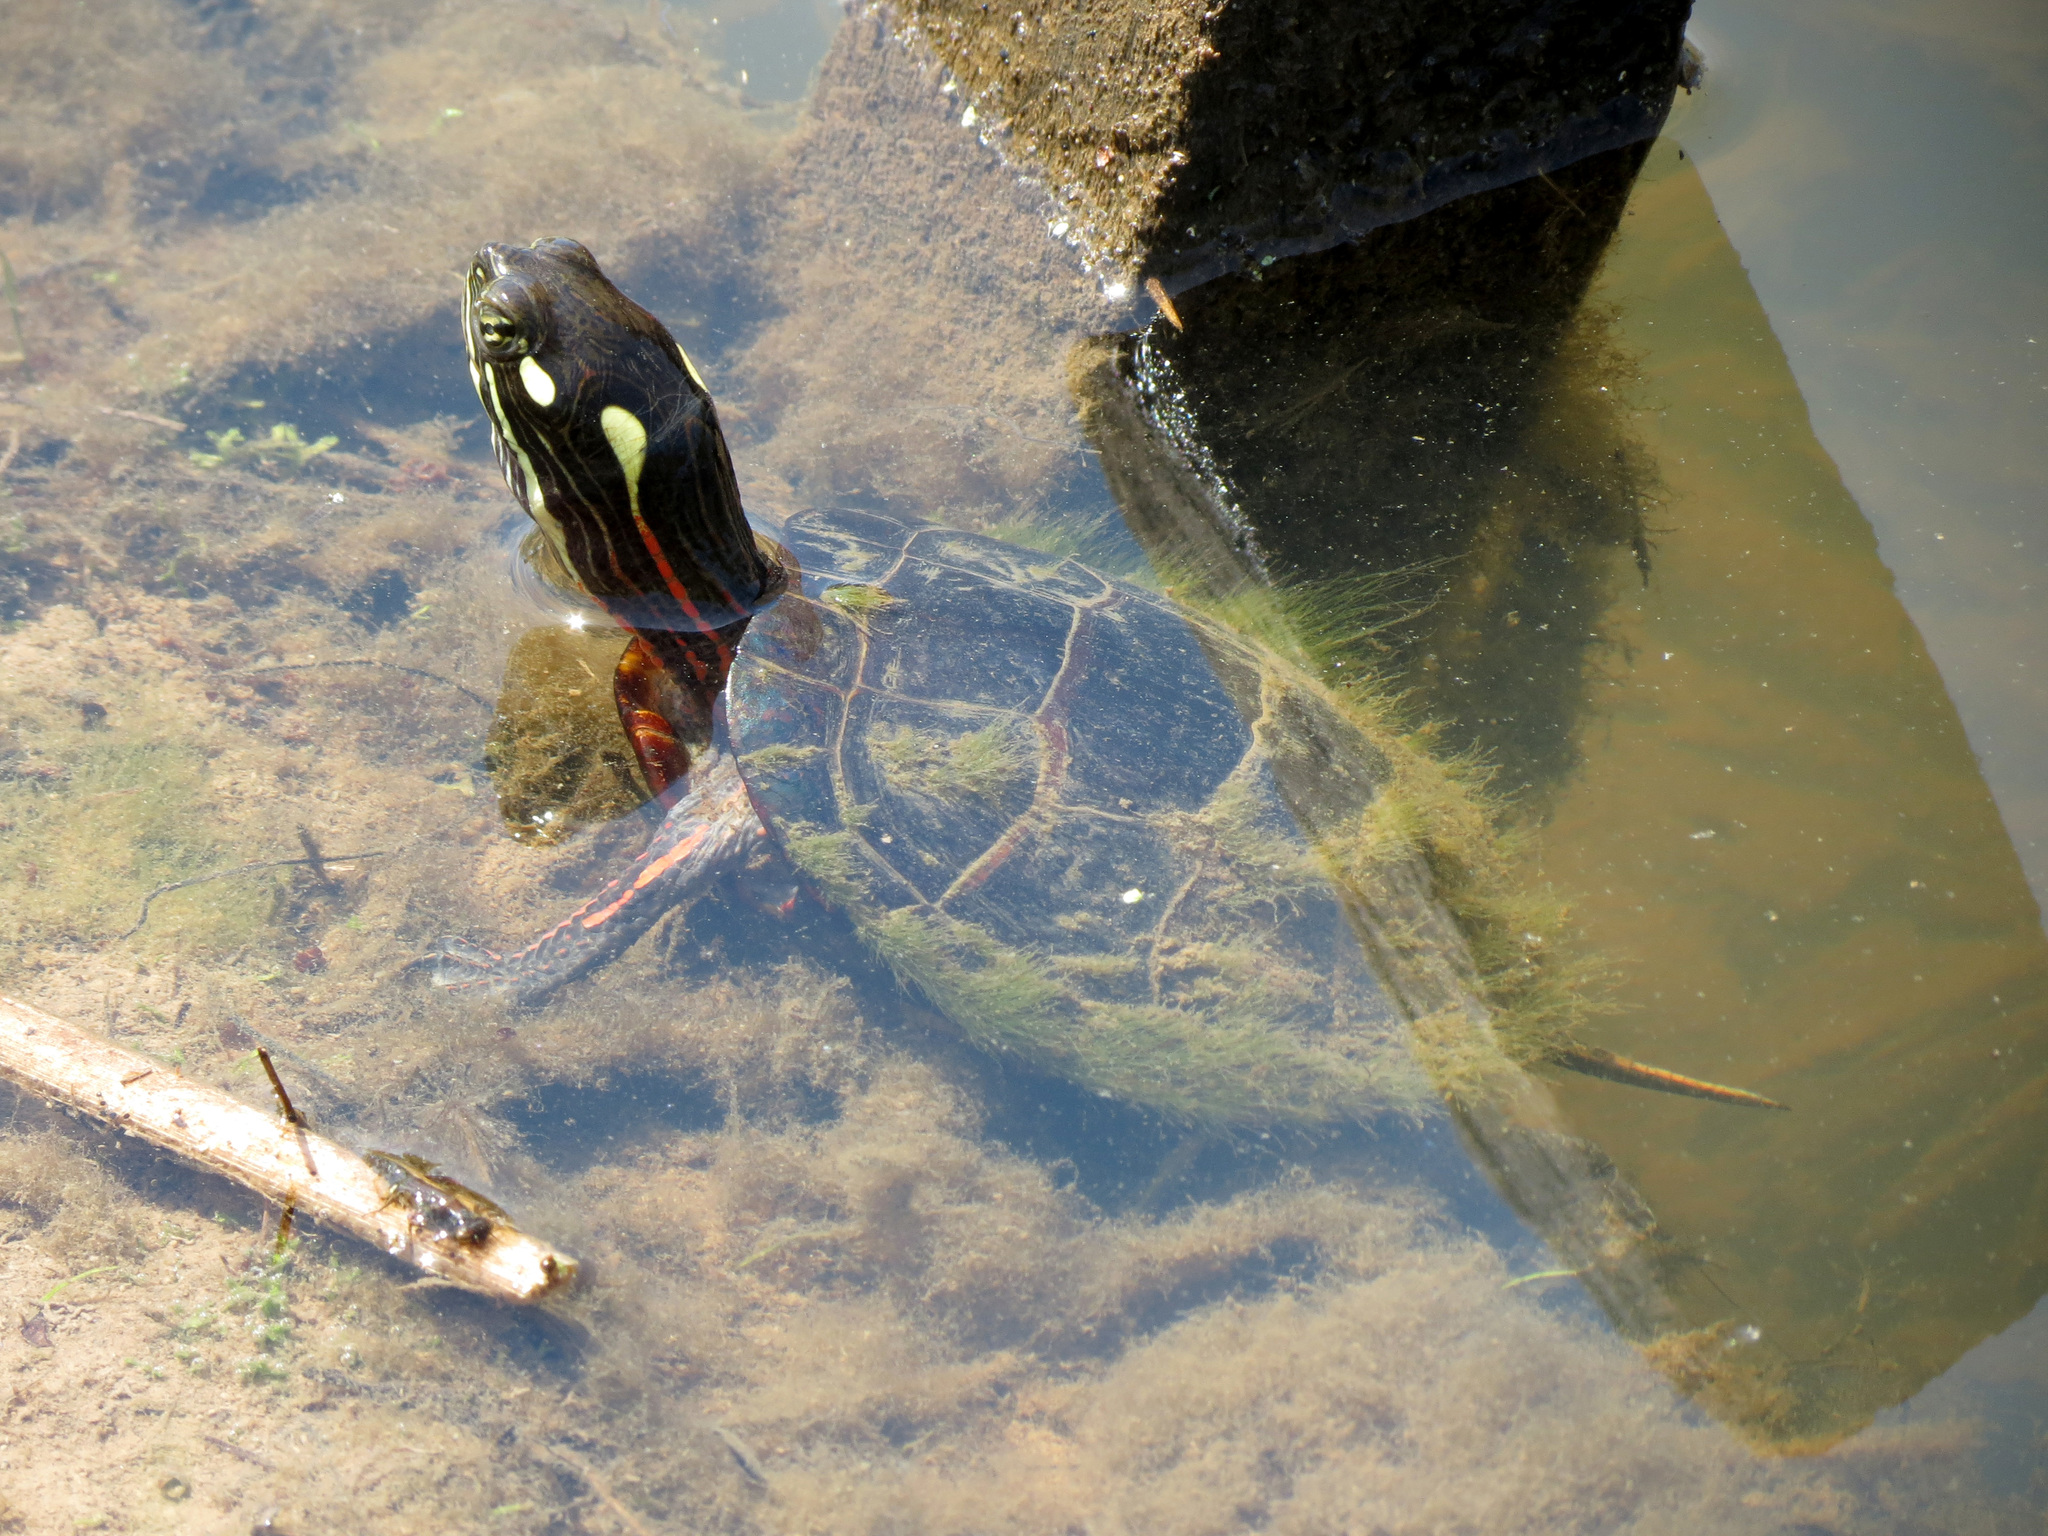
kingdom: Animalia
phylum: Chordata
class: Testudines
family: Emydidae
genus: Chrysemys
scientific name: Chrysemys picta
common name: Painted turtle
